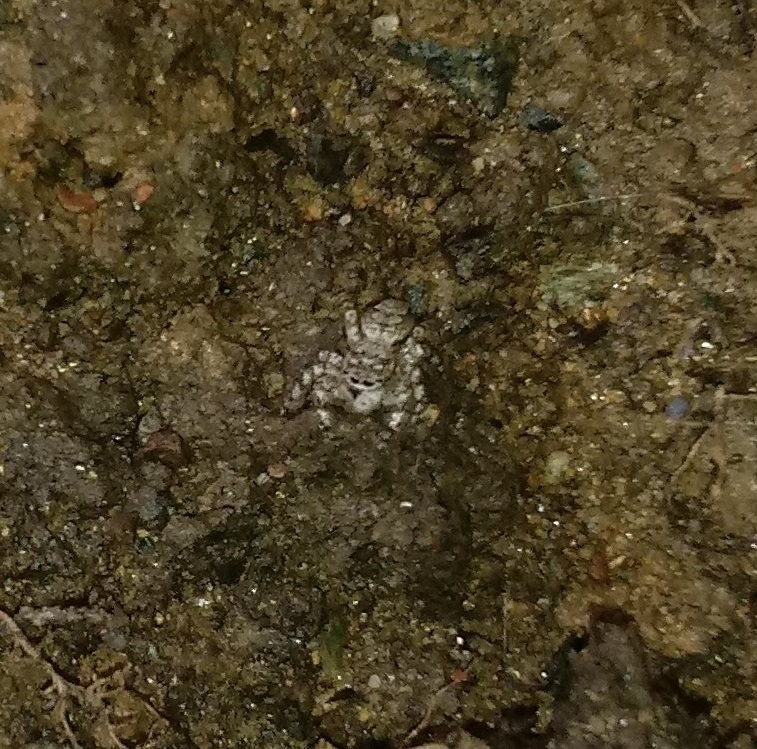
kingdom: Animalia
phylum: Arthropoda
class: Arachnida
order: Araneae
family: Salticidae
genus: Platycryptus
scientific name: Platycryptus undatus
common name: Tan jumping spider
